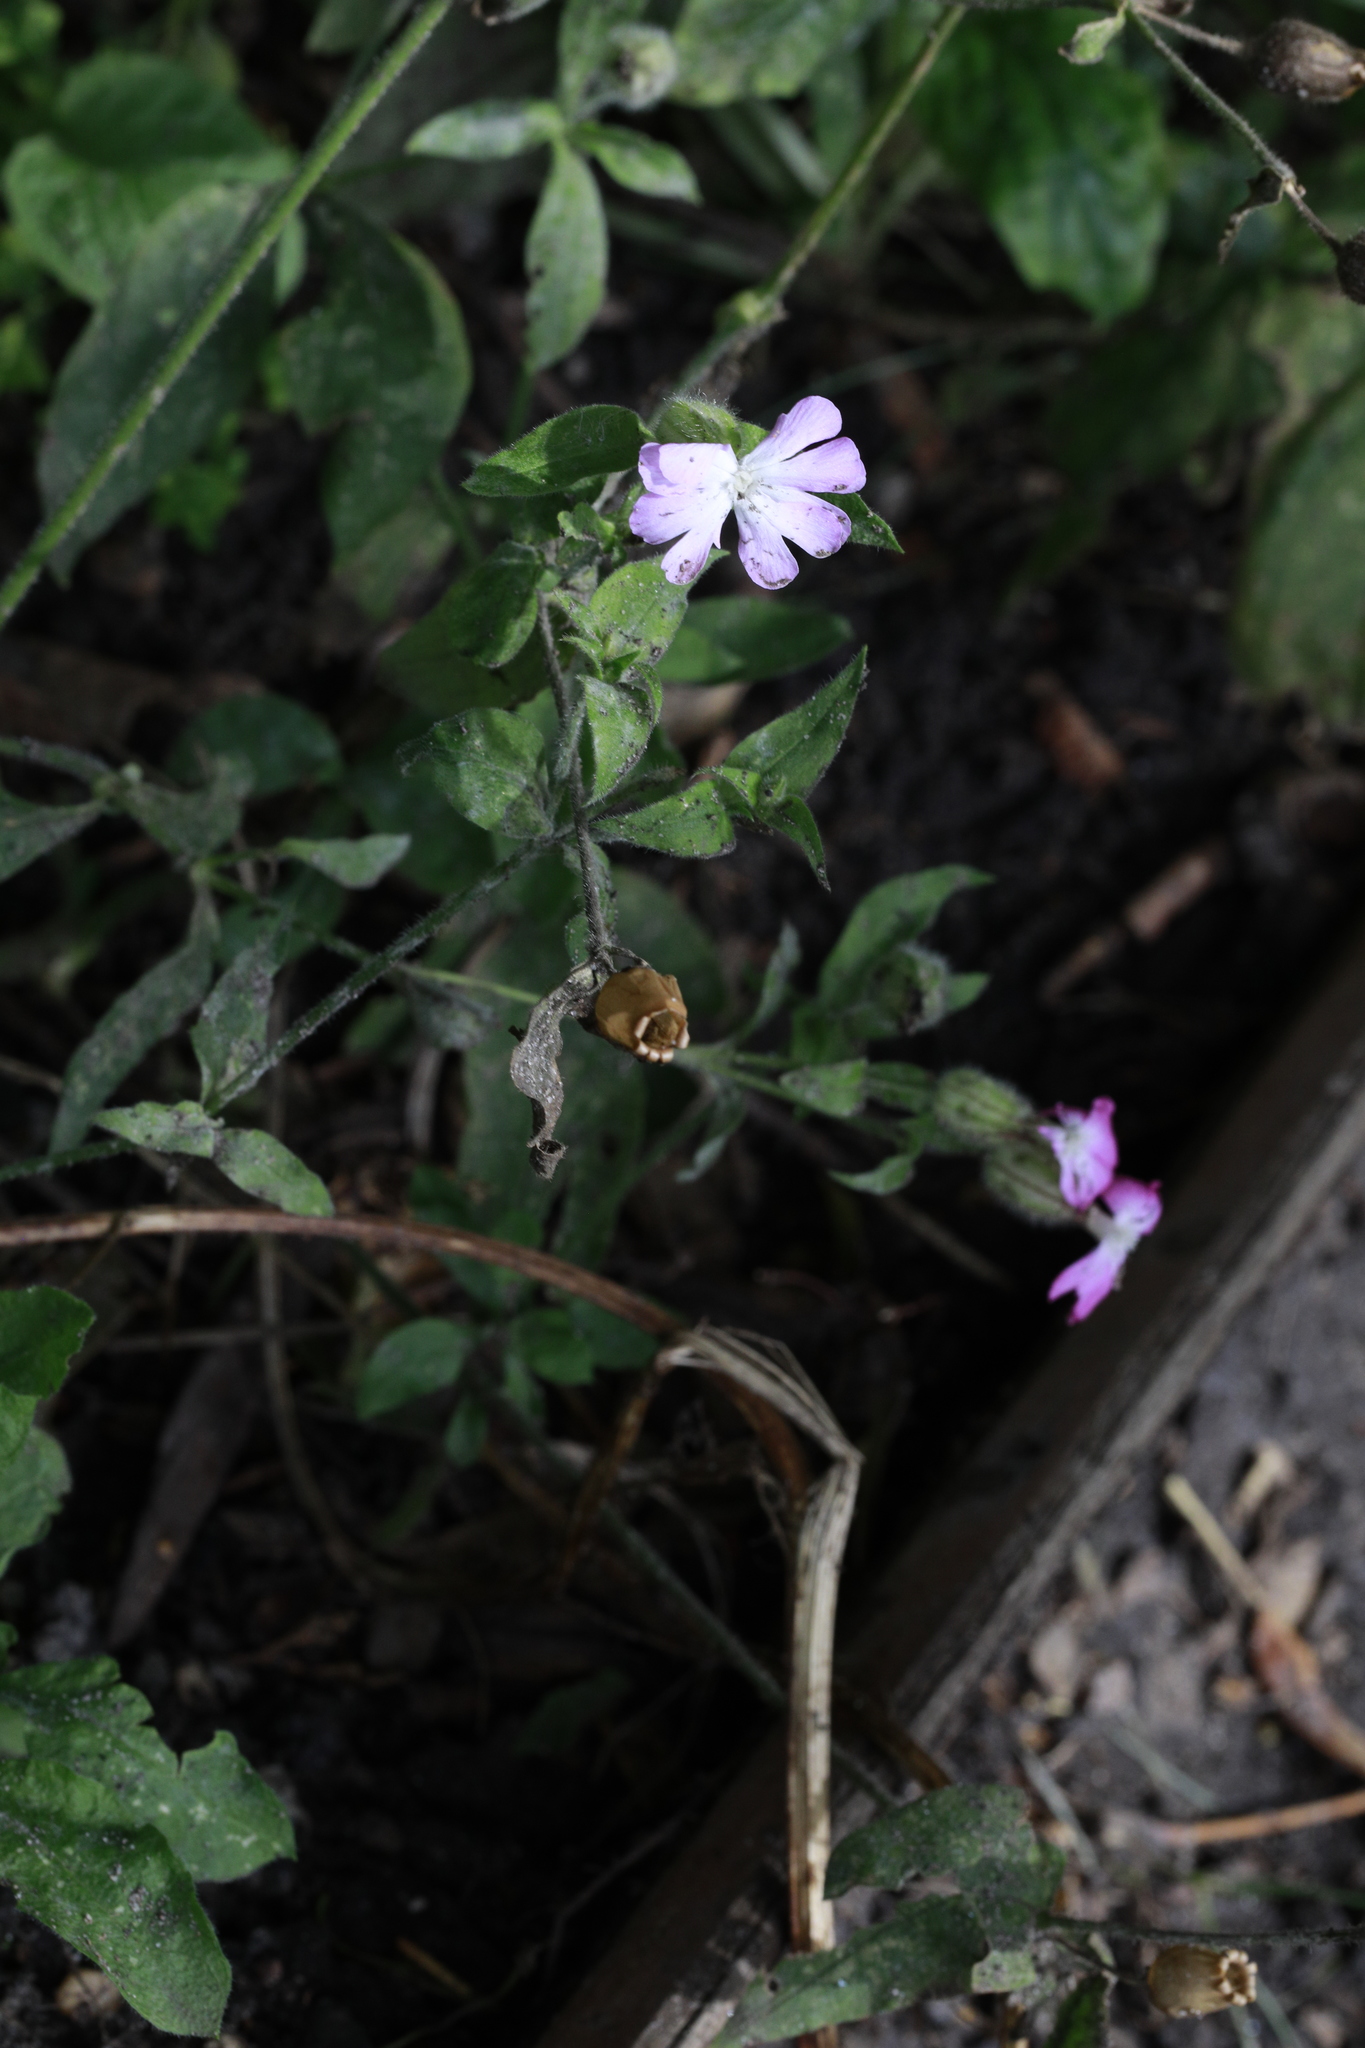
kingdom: Plantae
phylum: Tracheophyta
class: Magnoliopsida
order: Caryophyllales
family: Caryophyllaceae
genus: Silene
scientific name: Silene dioica
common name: Red campion
